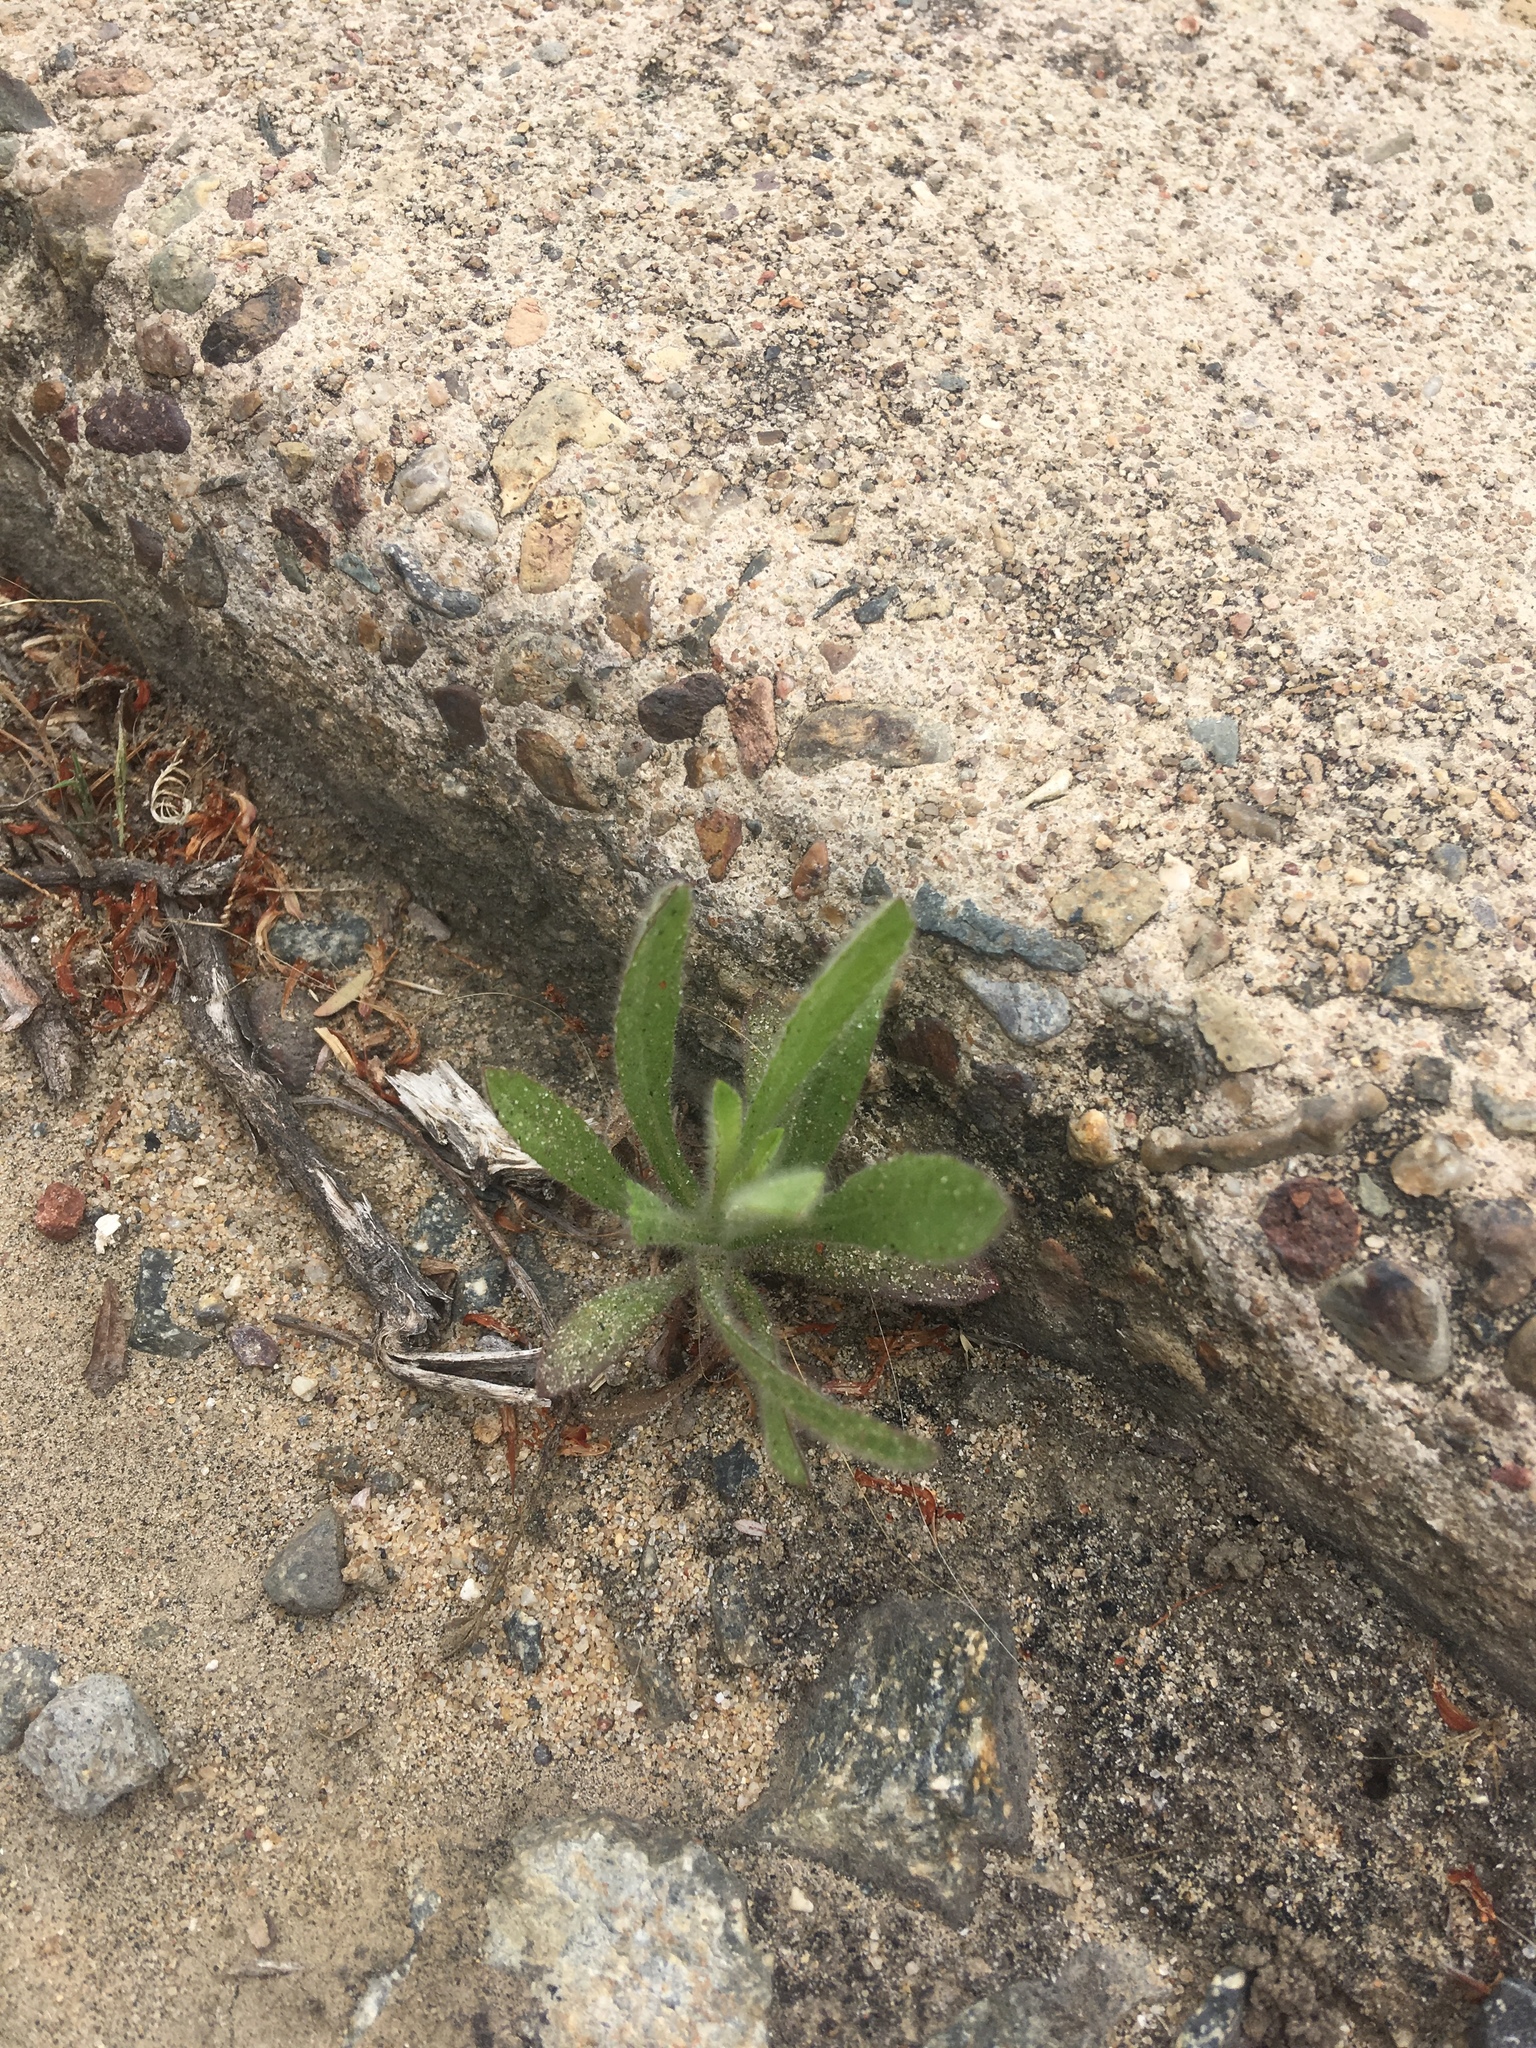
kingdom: Plantae
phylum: Tracheophyta
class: Magnoliopsida
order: Asterales
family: Asteraceae
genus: Dittrichia
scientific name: Dittrichia graveolens
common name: Stinking fleabane
